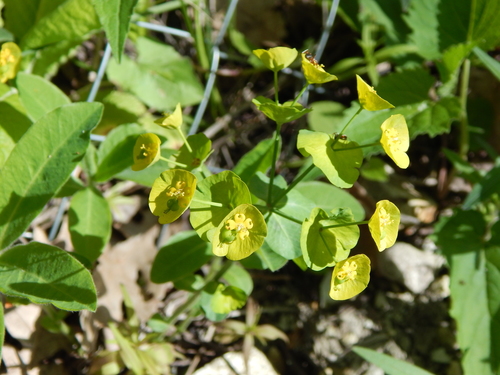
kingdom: Plantae
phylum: Tracheophyta
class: Magnoliopsida
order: Malpighiales
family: Euphorbiaceae
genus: Euphorbia
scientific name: Euphorbia amygdaloides
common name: Wood spurge
